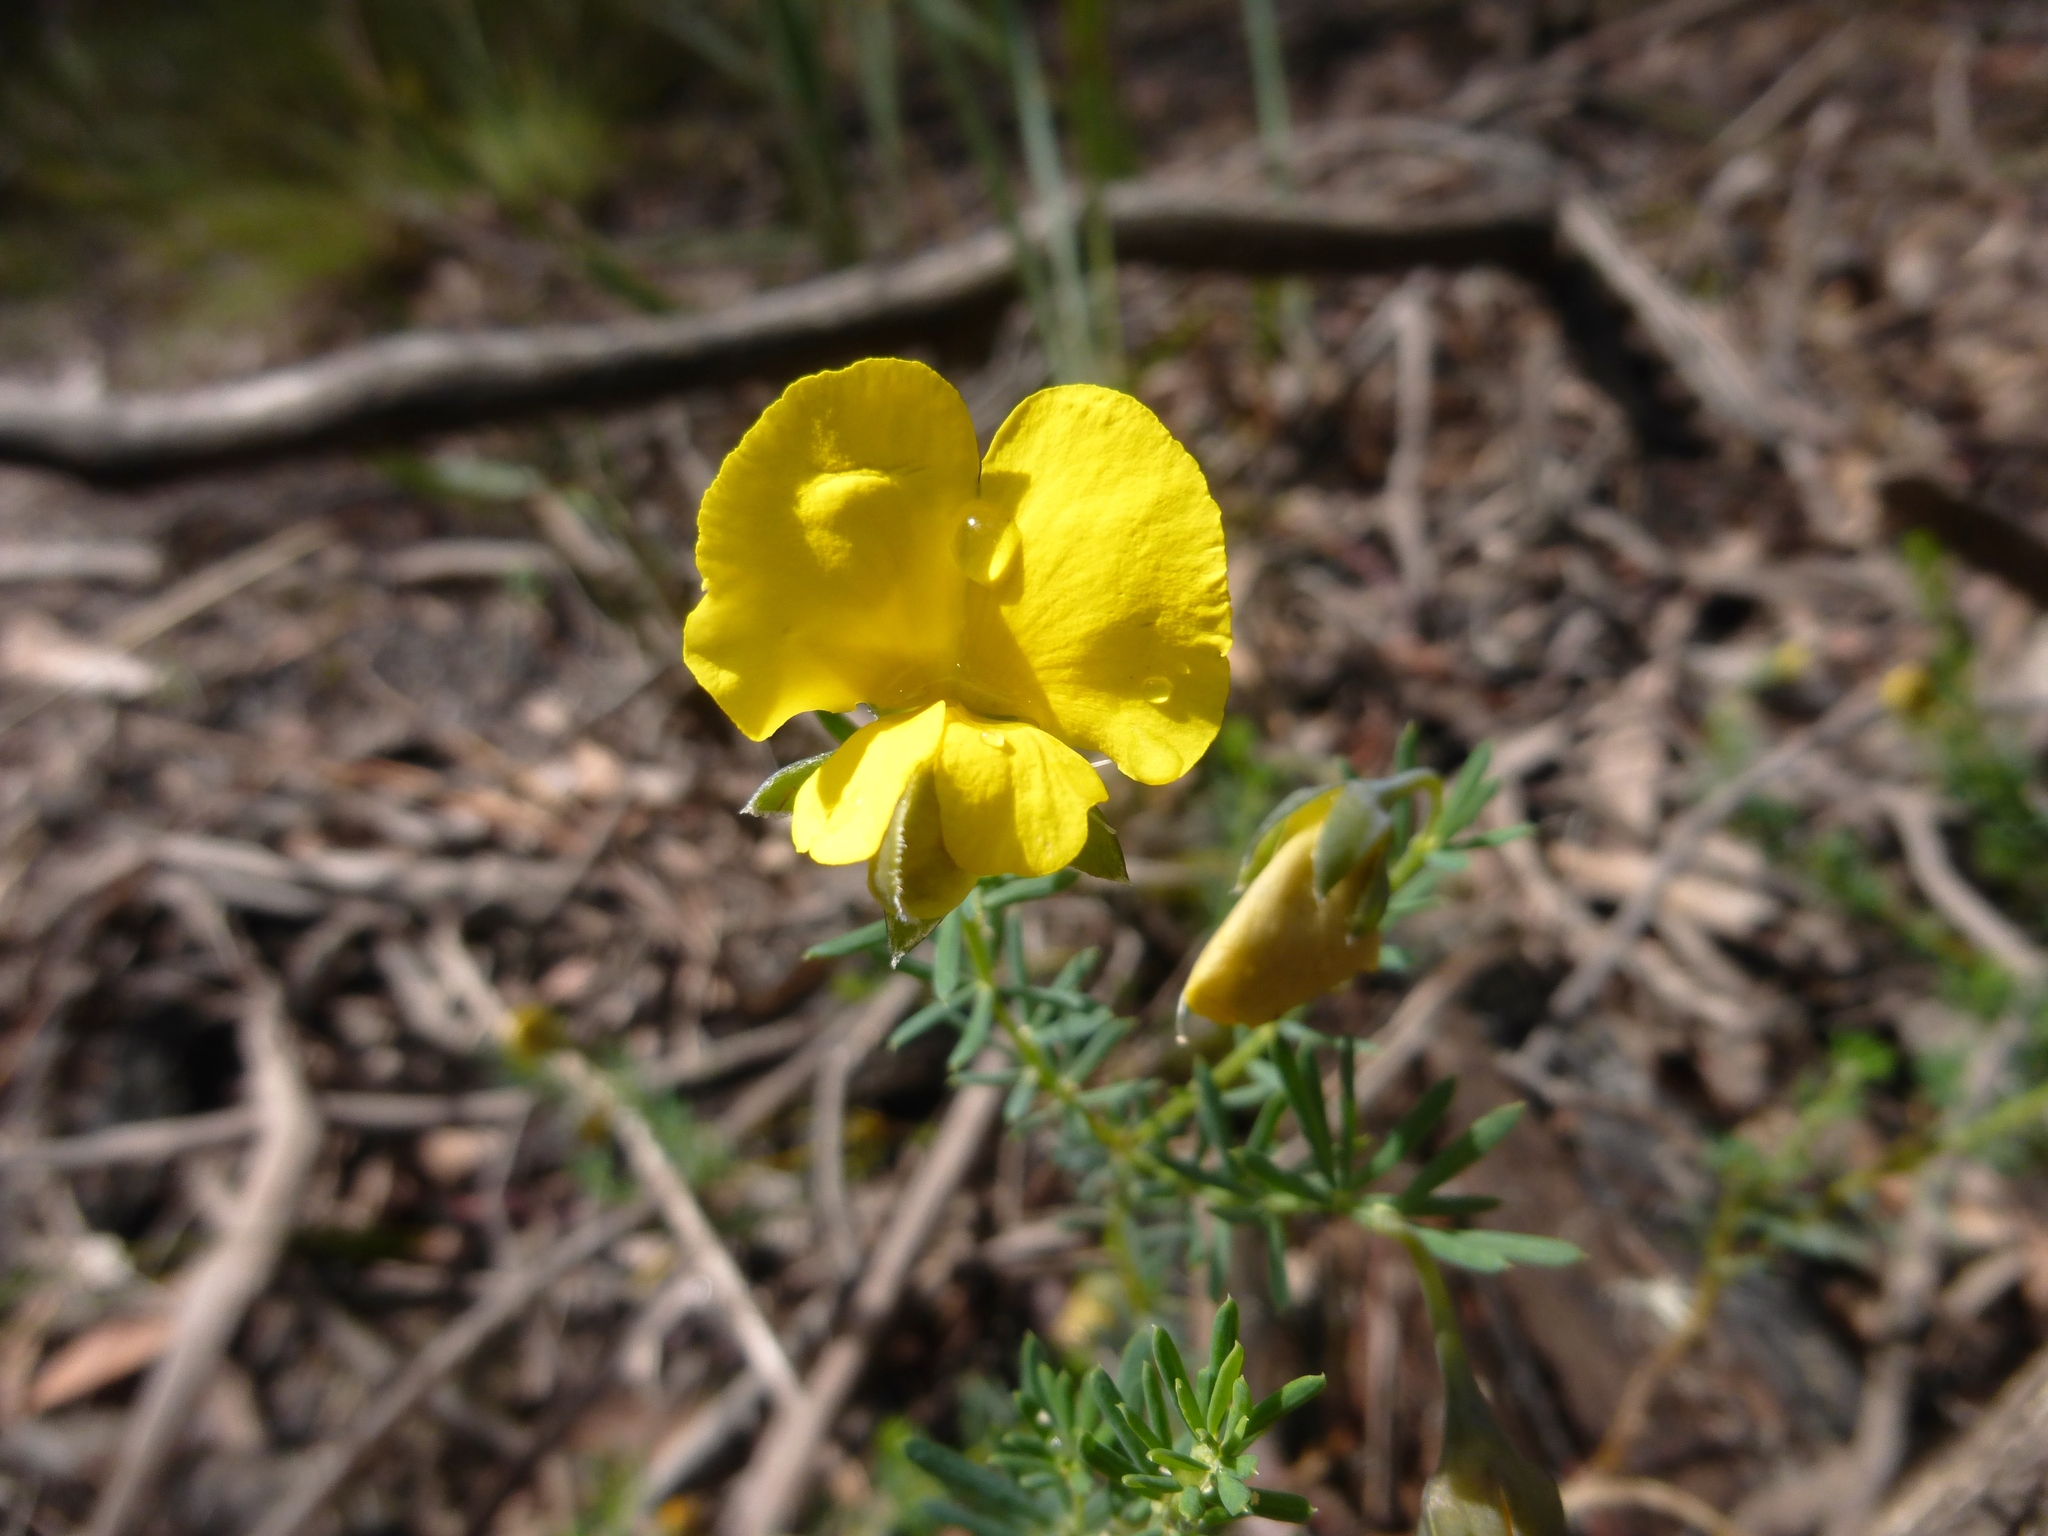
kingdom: Plantae
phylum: Tracheophyta
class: Magnoliopsida
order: Fabales
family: Fabaceae
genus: Gompholobium
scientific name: Gompholobium huegelii
